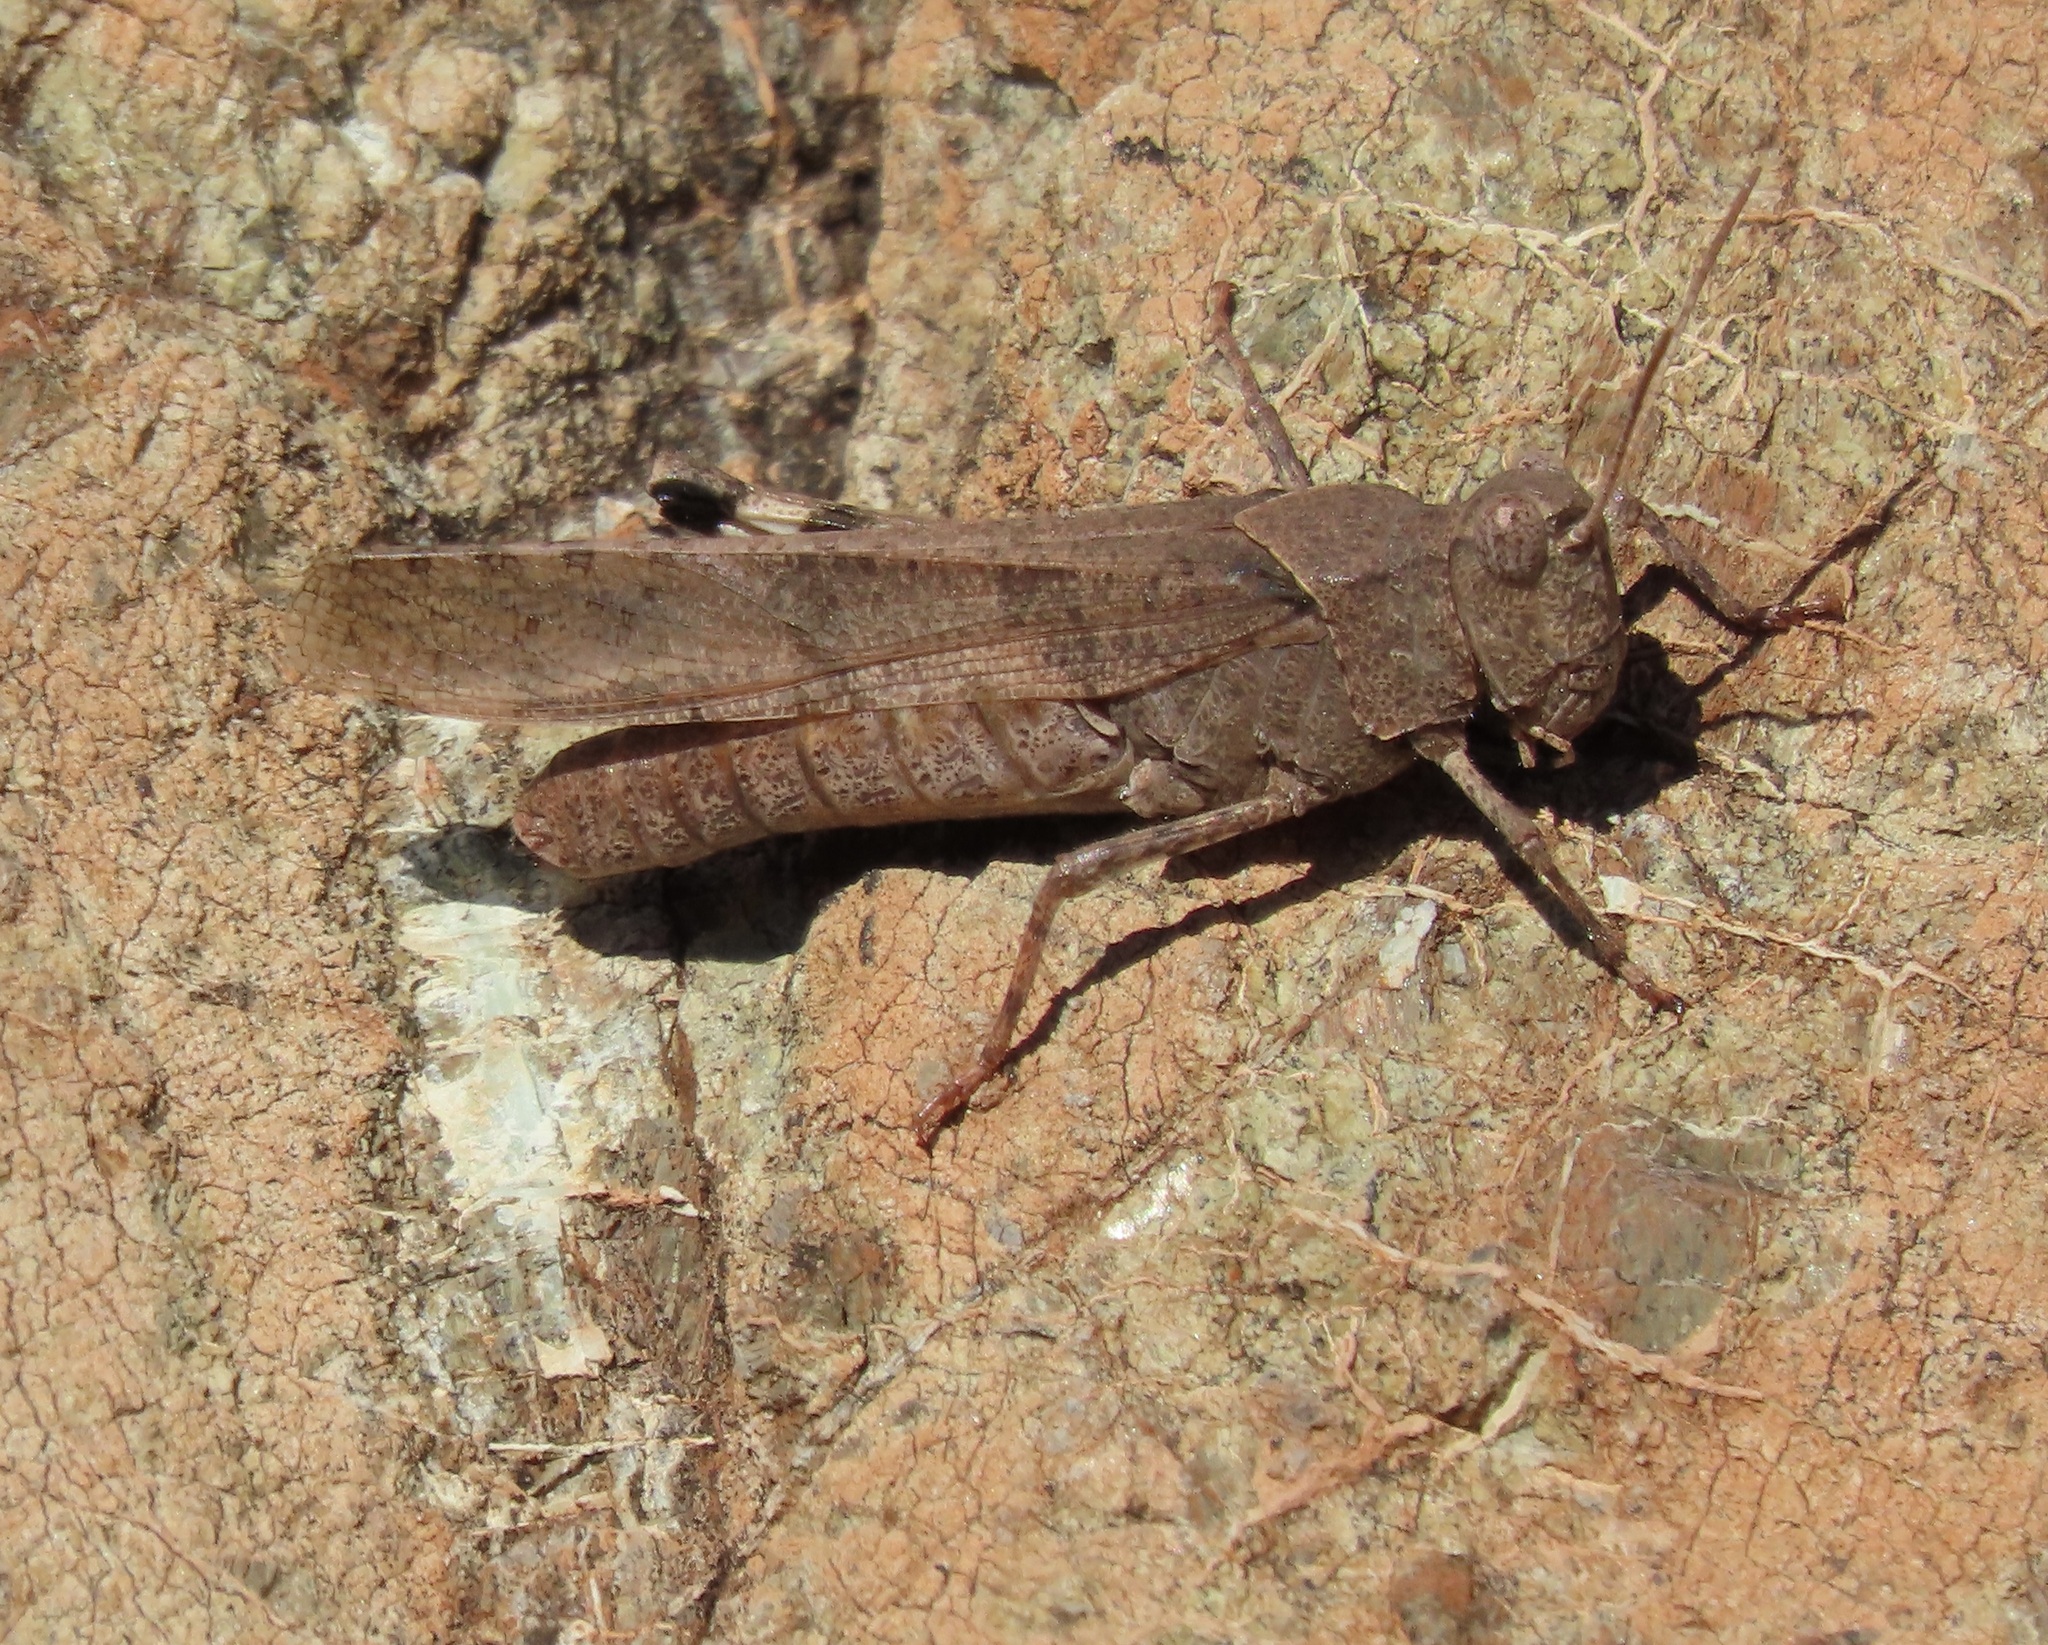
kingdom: Animalia
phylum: Arthropoda
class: Insecta
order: Orthoptera
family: Acrididae
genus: Trimerotropis
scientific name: Trimerotropis thalassica
